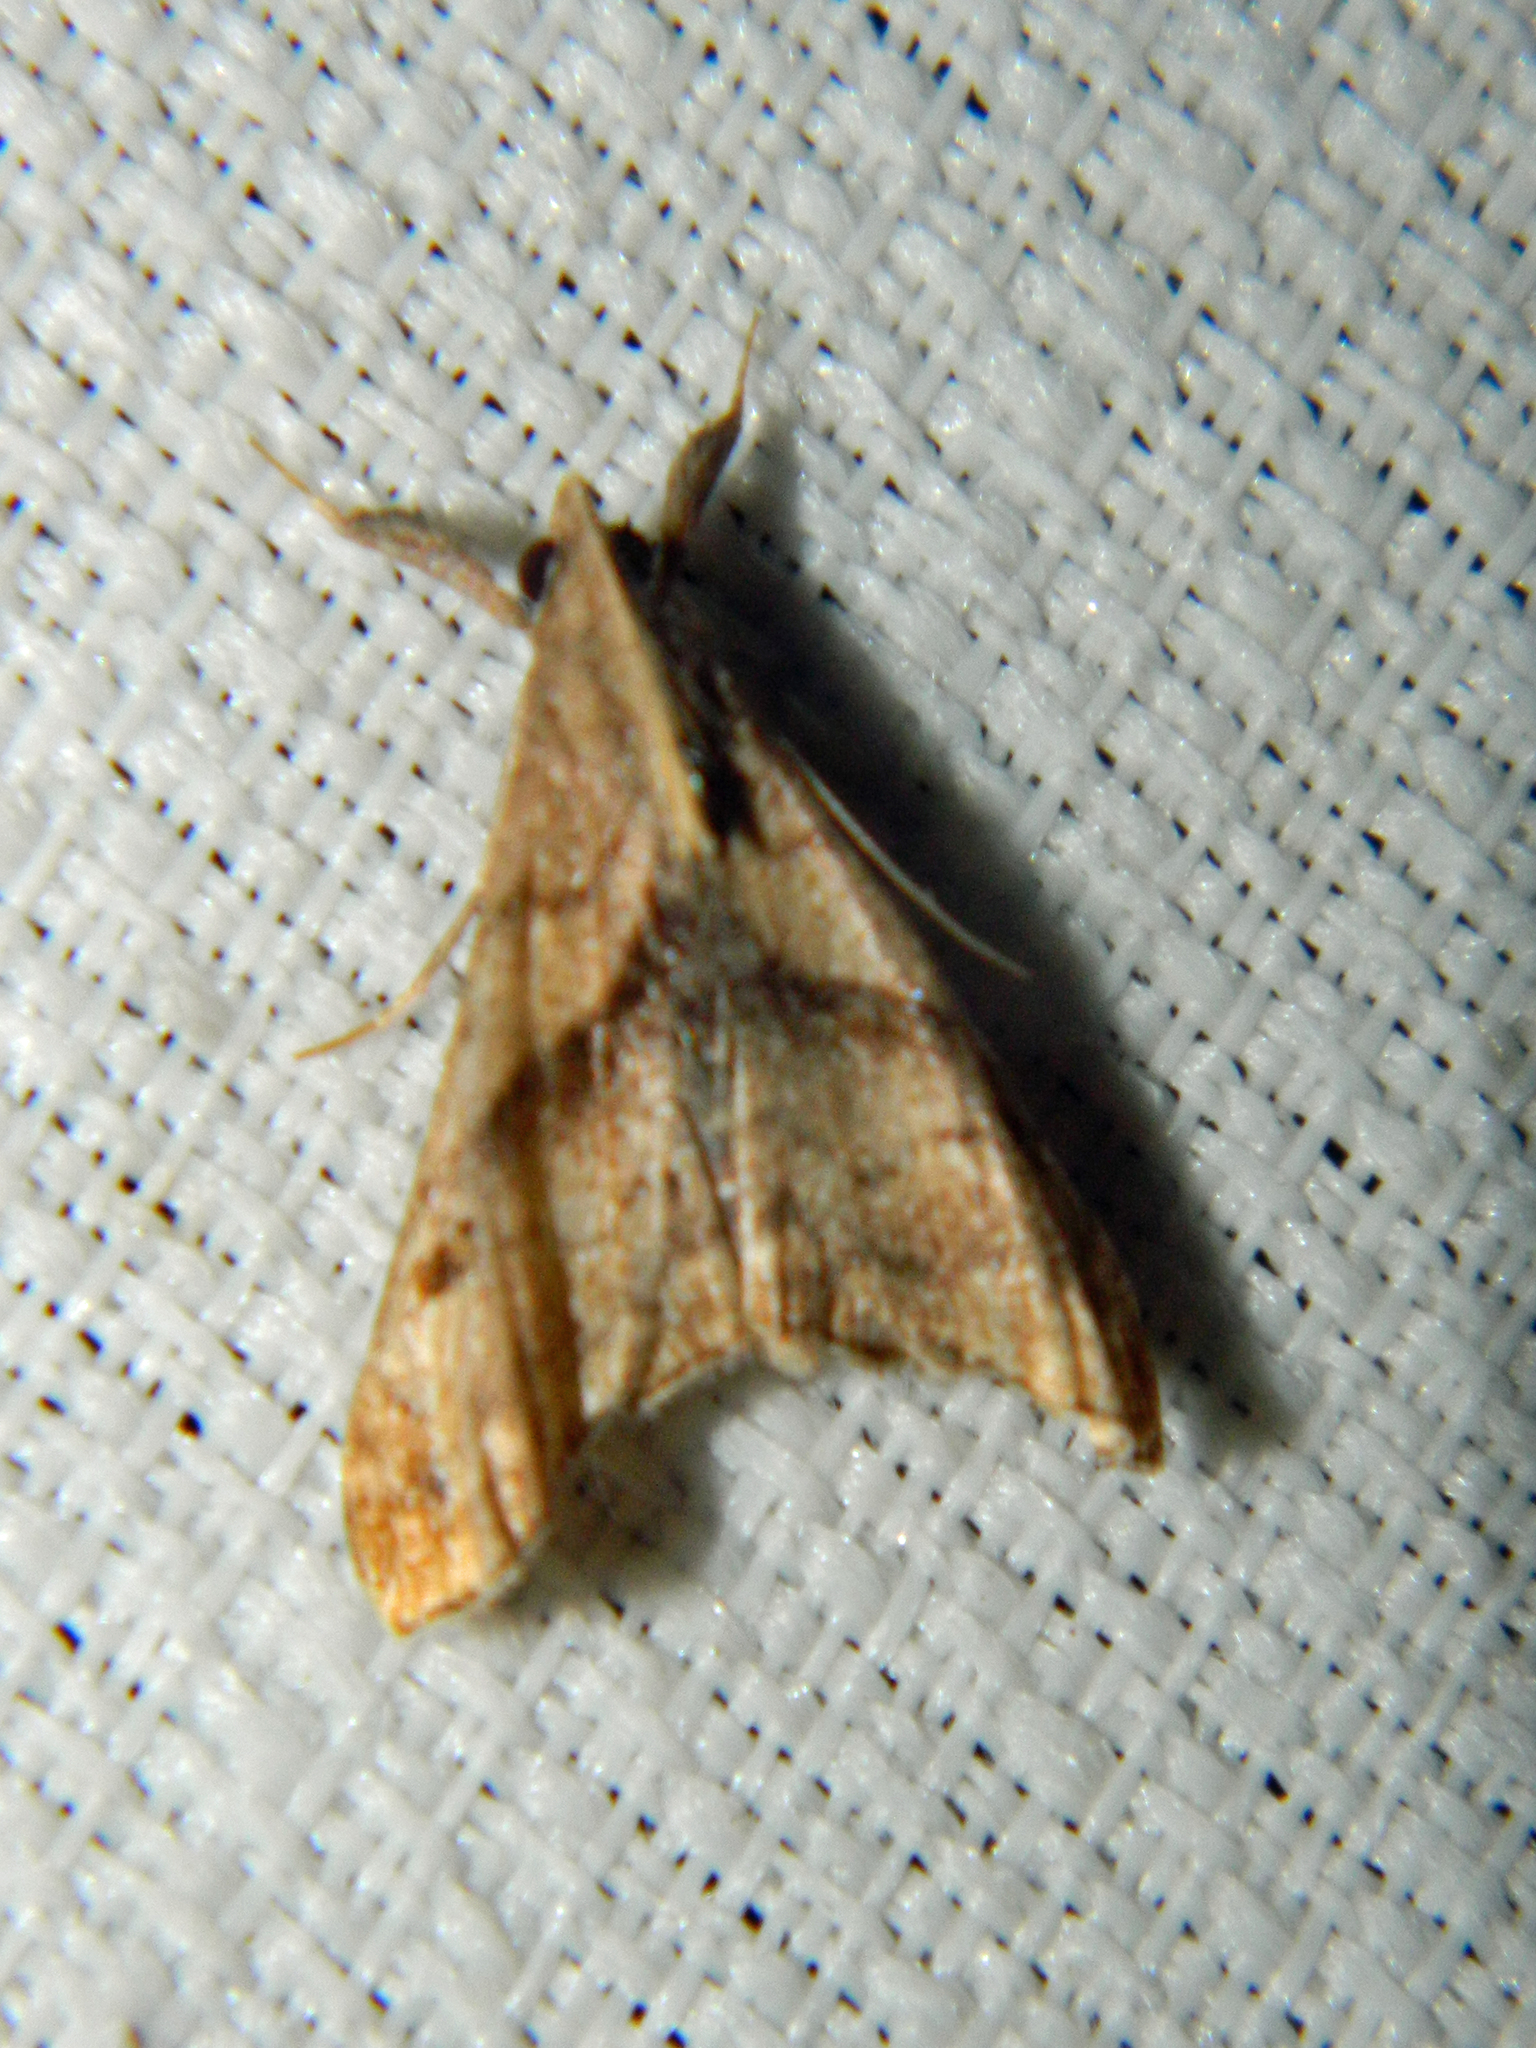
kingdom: Animalia
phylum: Arthropoda
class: Insecta
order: Lepidoptera
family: Erebidae
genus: Palthis
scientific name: Palthis angulalis
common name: Dark-spotted palthis moth
